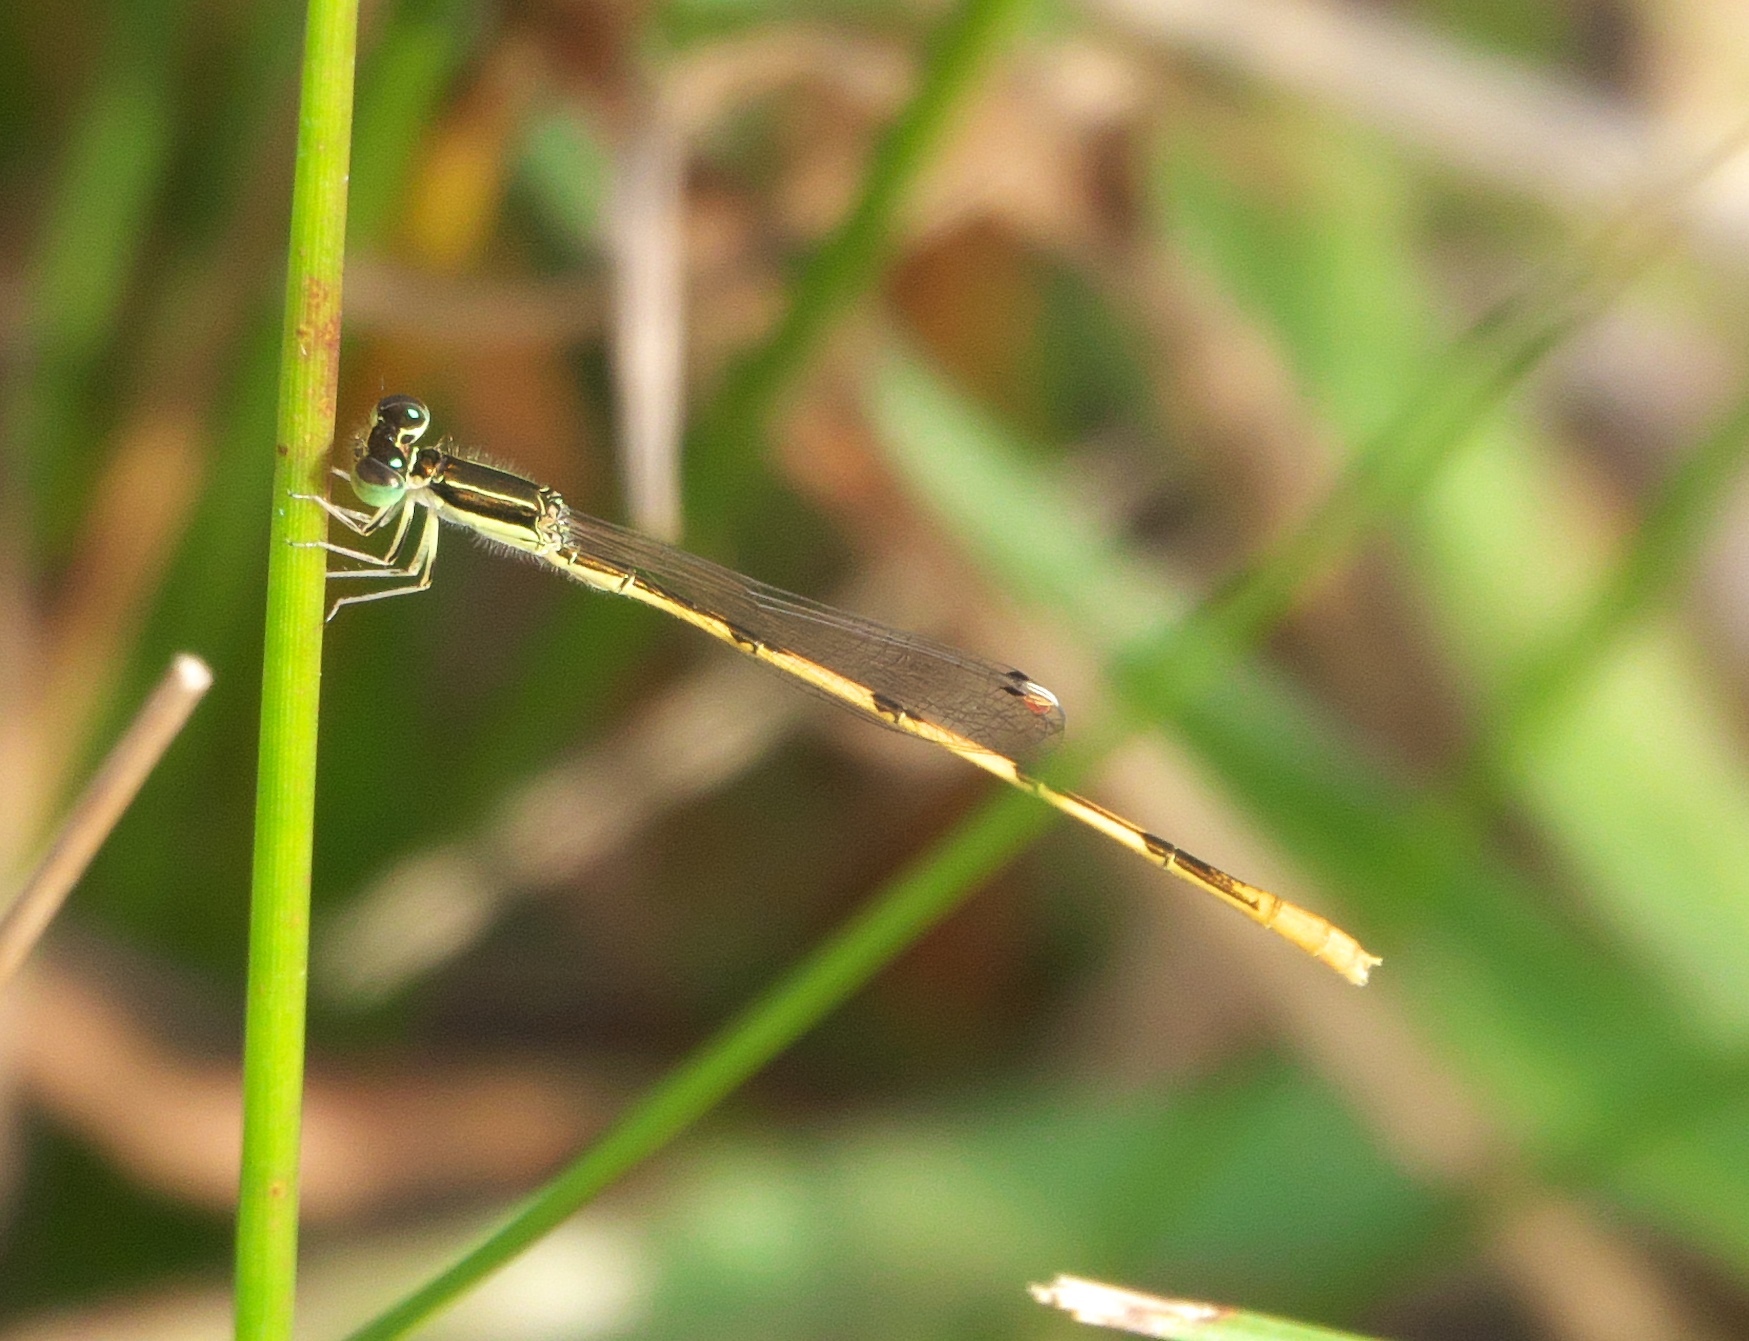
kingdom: Animalia
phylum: Arthropoda
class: Insecta
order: Odonata
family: Coenagrionidae
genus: Ischnura
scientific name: Ischnura hastata
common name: Citrine forktail
